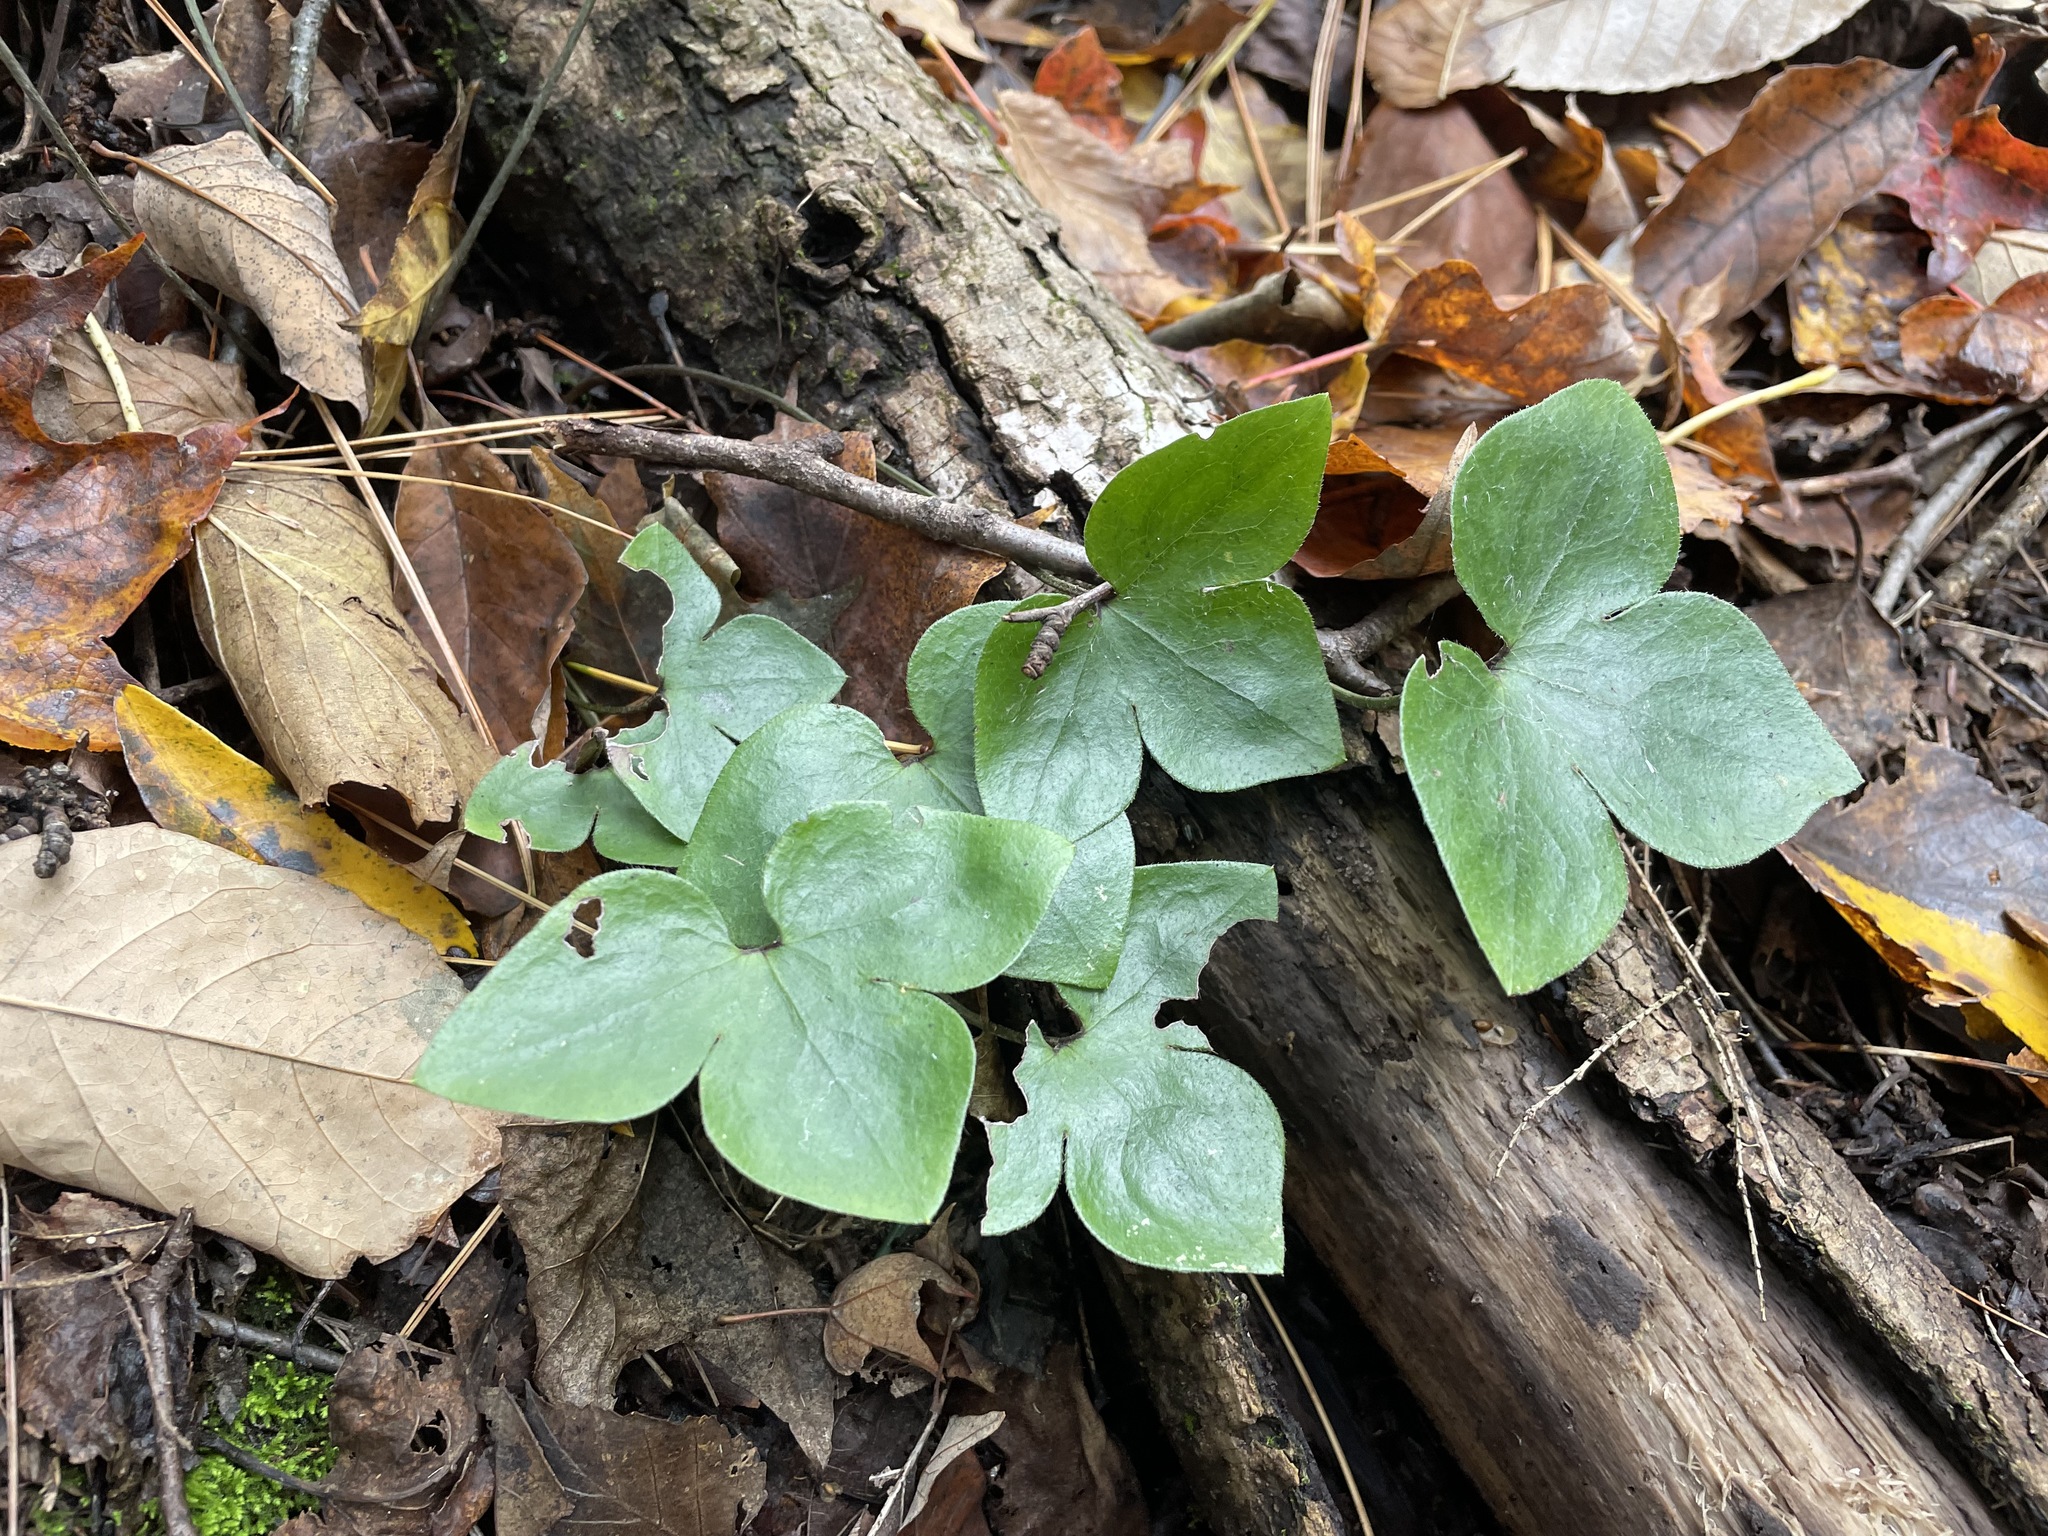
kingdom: Plantae
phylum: Tracheophyta
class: Magnoliopsida
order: Ranunculales
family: Ranunculaceae
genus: Hepatica
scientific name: Hepatica acutiloba
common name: Sharp-lobed hepatica
